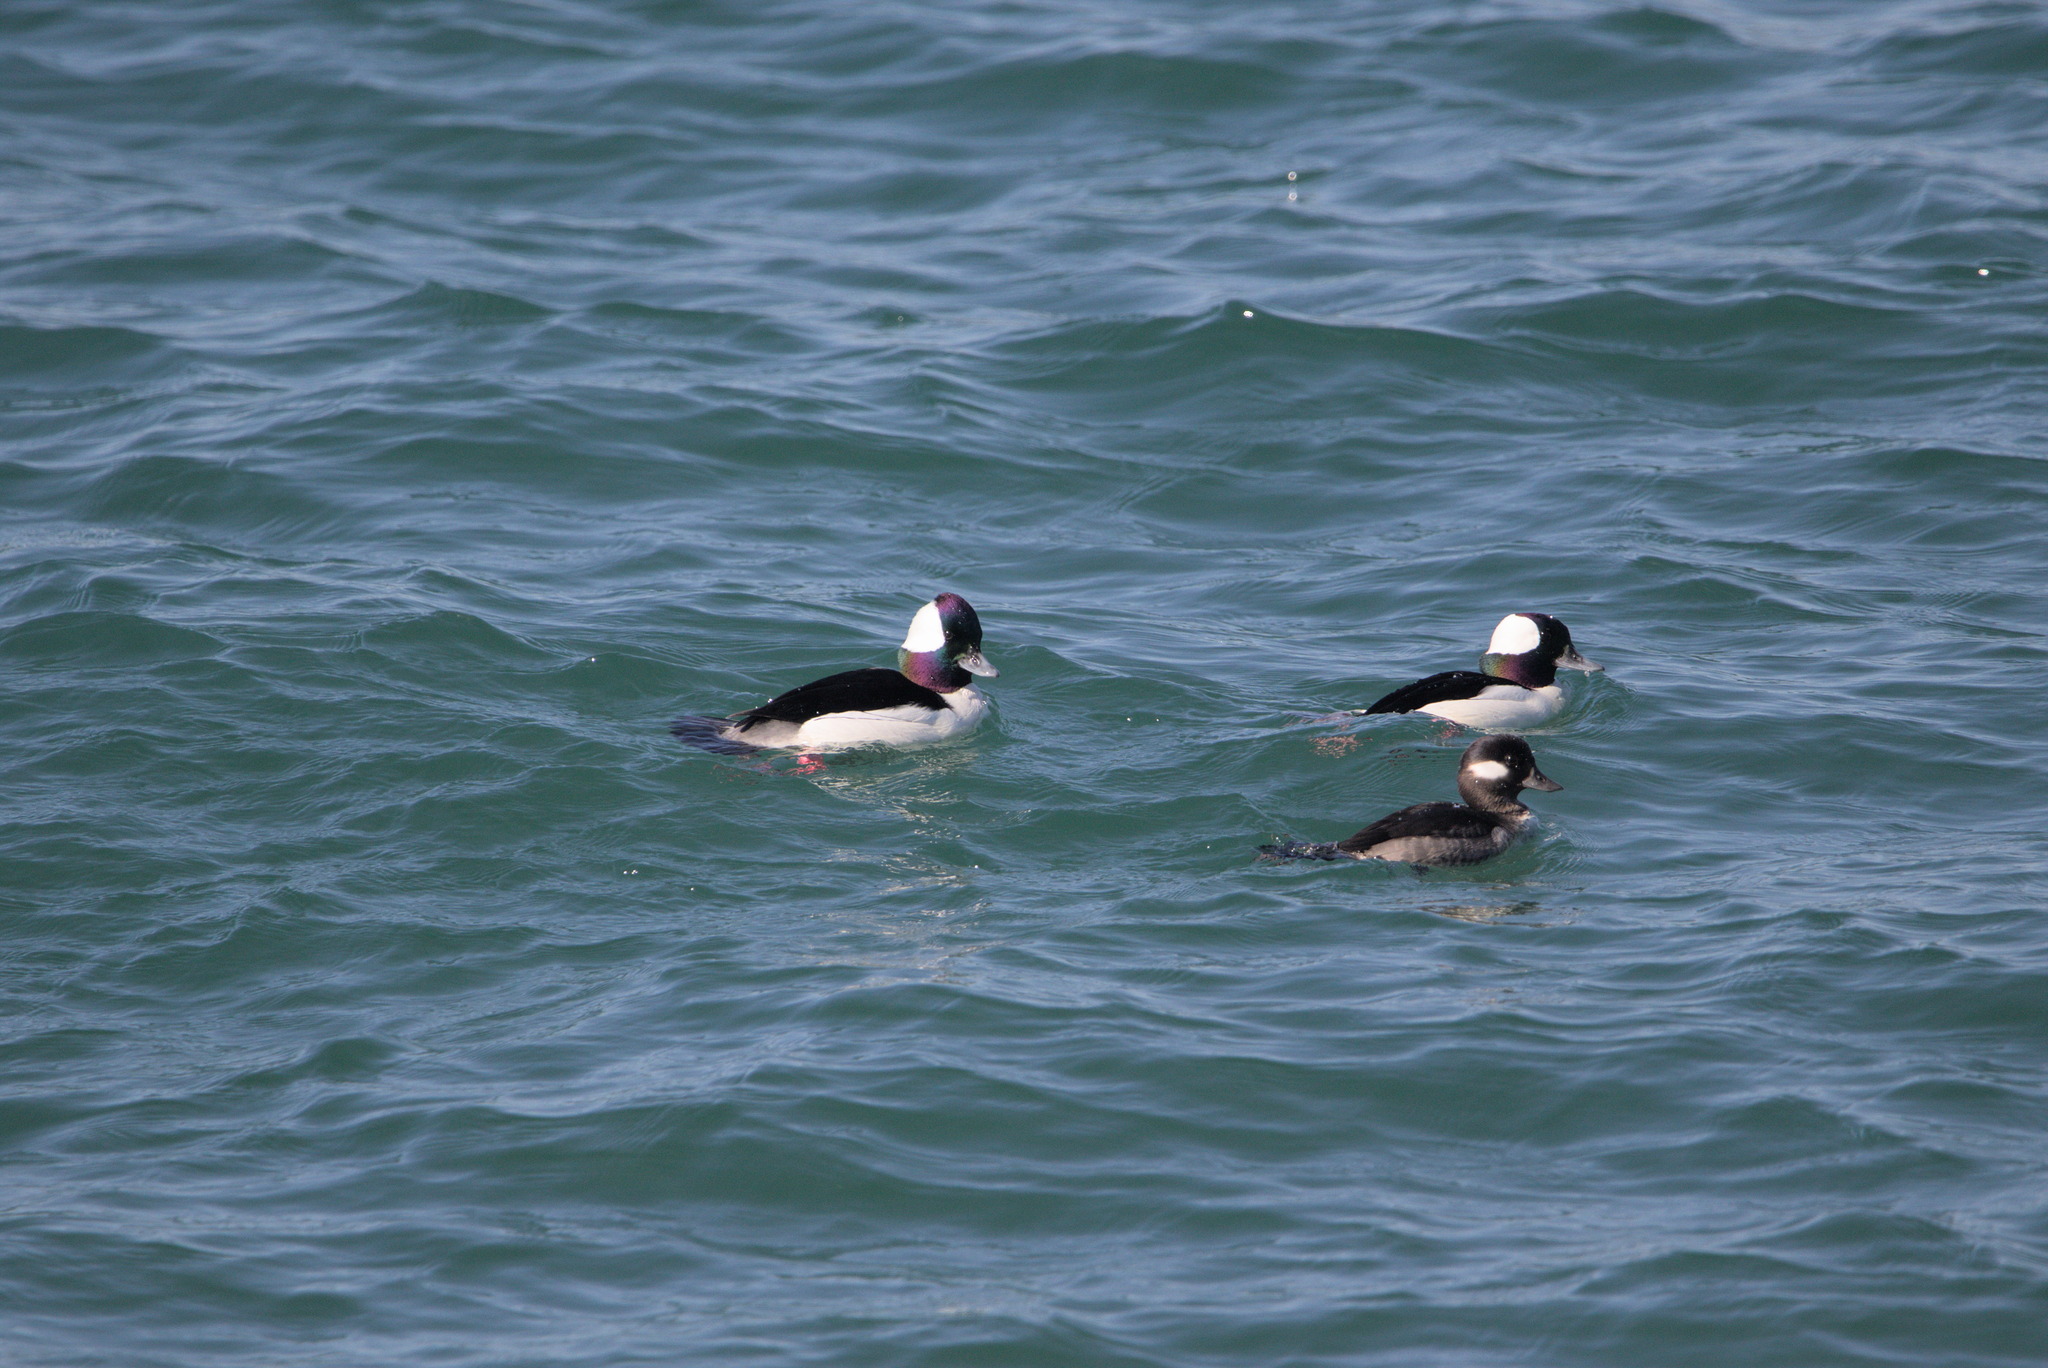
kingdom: Animalia
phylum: Chordata
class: Aves
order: Anseriformes
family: Anatidae
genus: Bucephala
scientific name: Bucephala albeola
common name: Bufflehead
